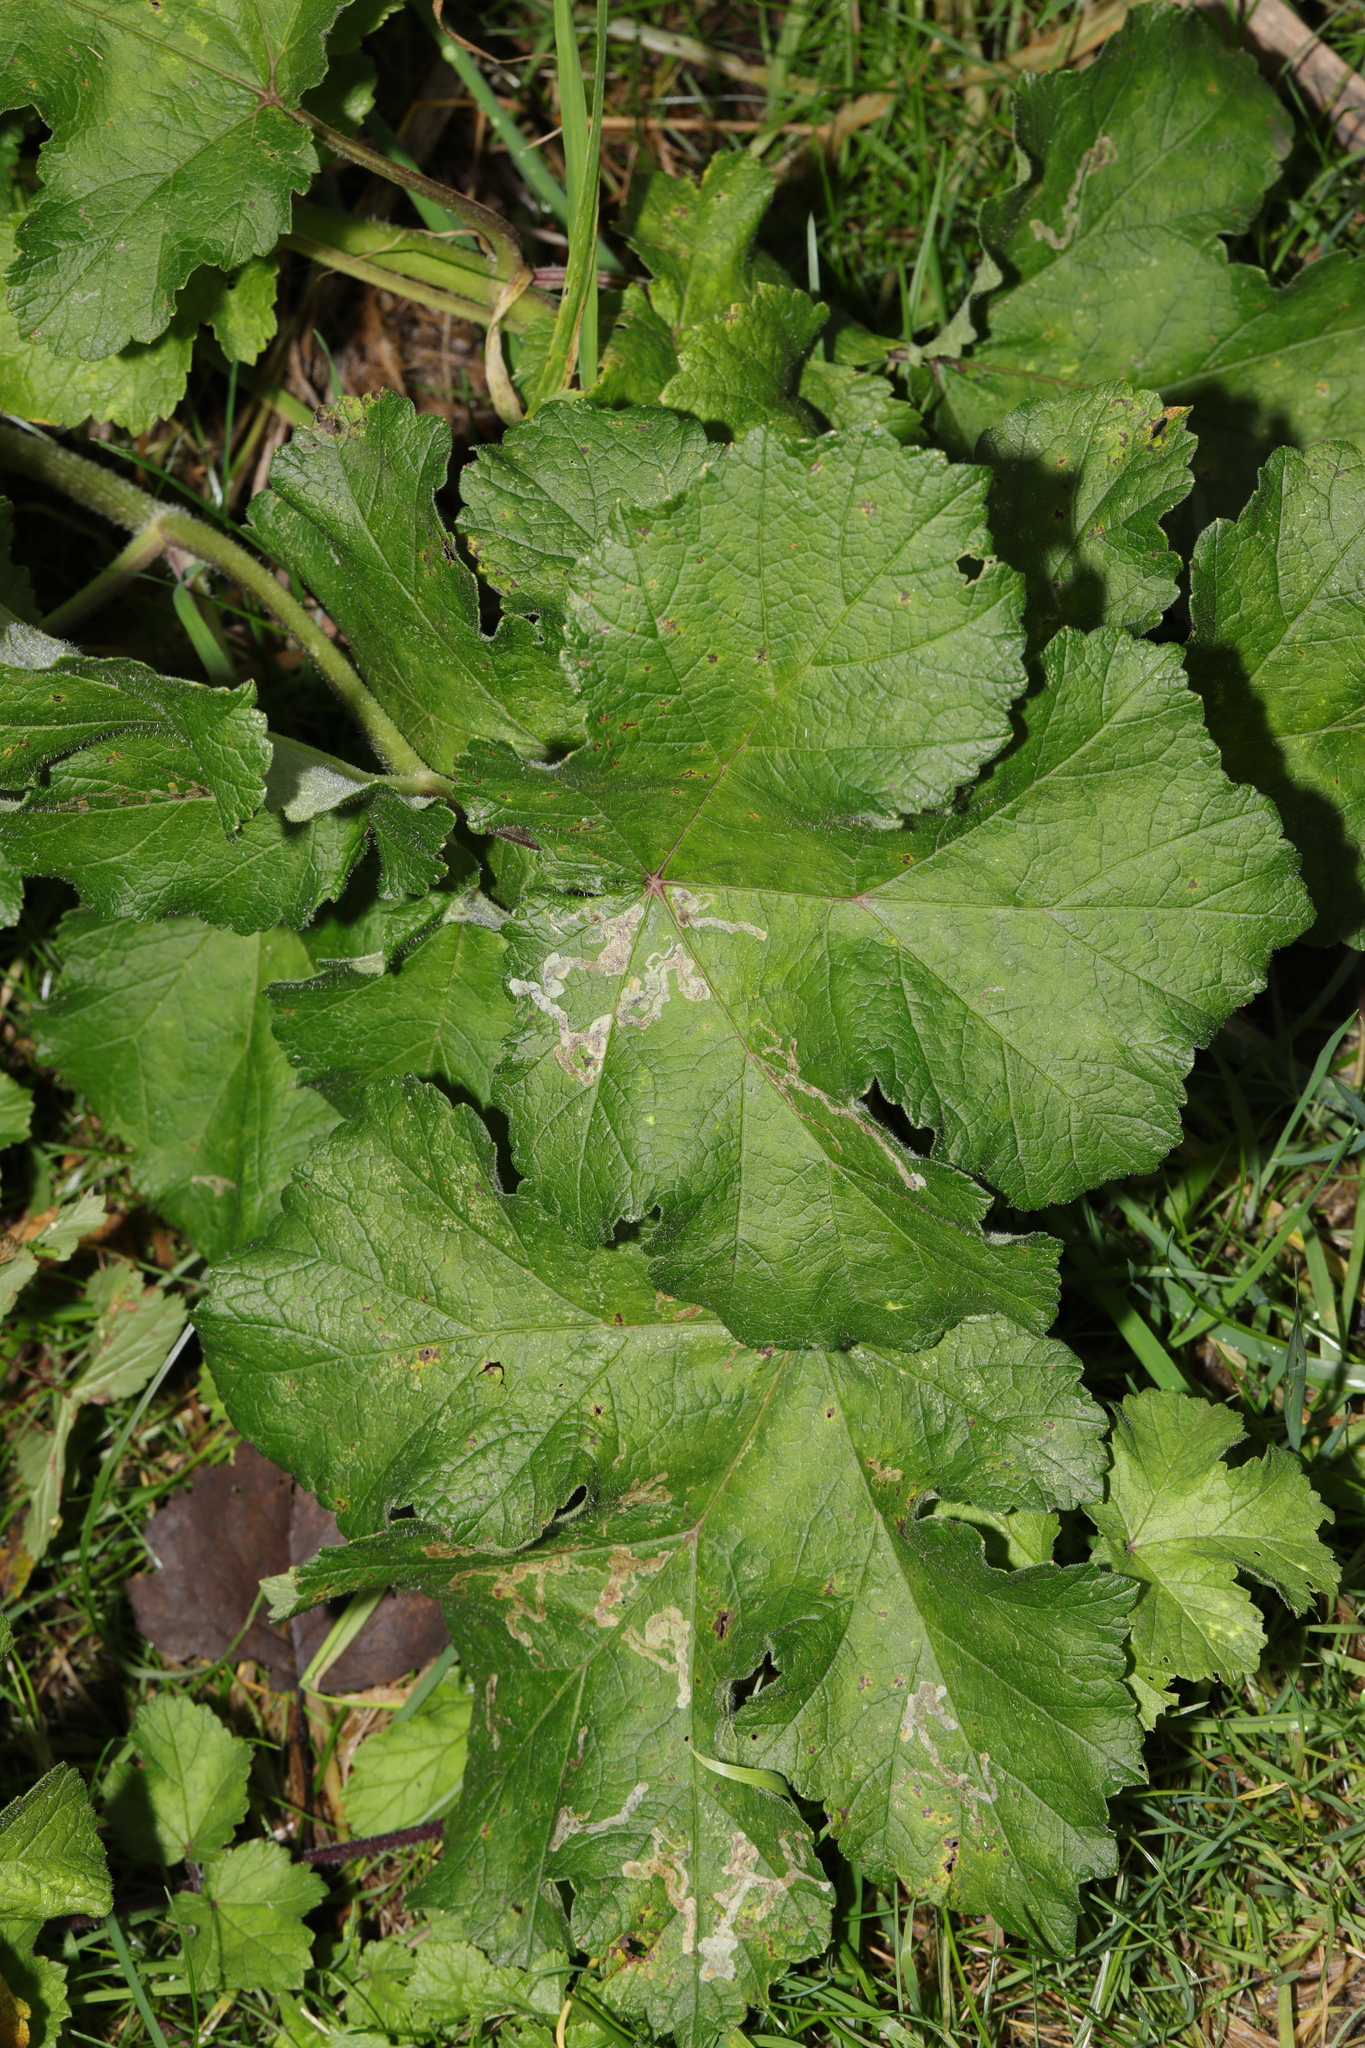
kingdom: Plantae
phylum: Tracheophyta
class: Magnoliopsida
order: Apiales
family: Apiaceae
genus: Heracleum
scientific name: Heracleum sphondylium
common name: Hogweed
